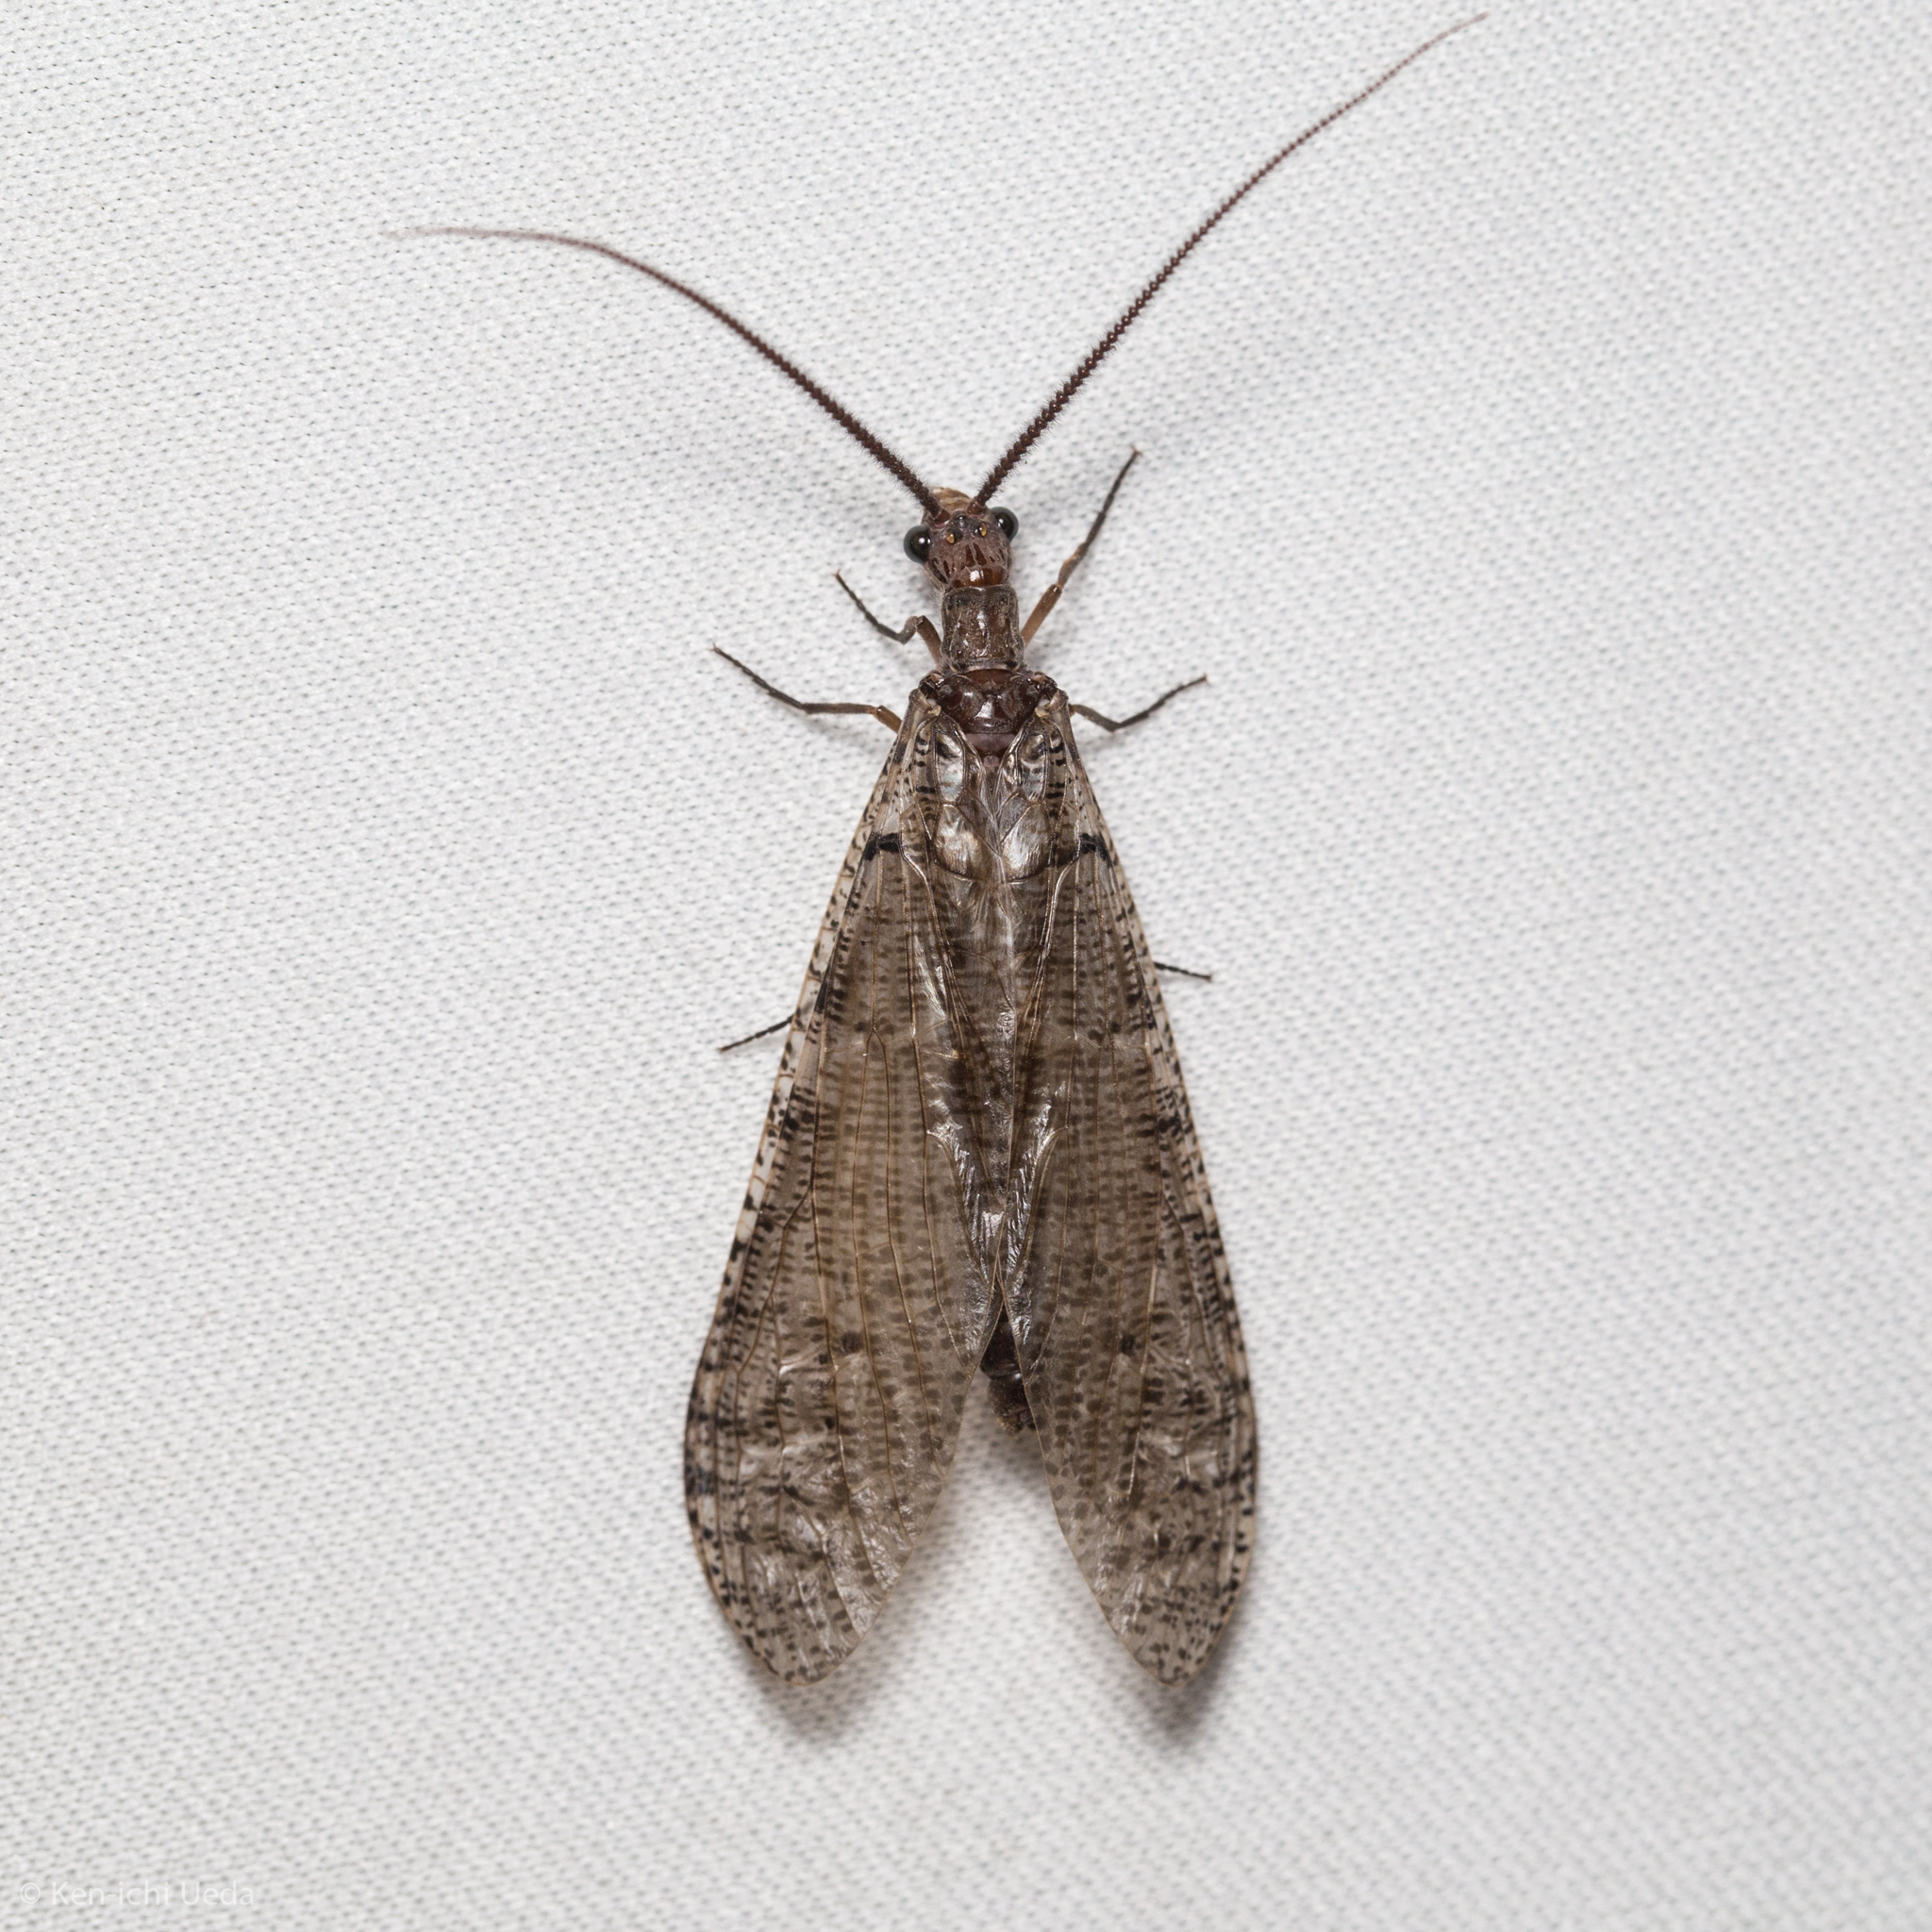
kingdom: Animalia
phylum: Arthropoda
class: Insecta
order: Megaloptera
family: Corydalidae
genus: Neohermes
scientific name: Neohermes filicornis
